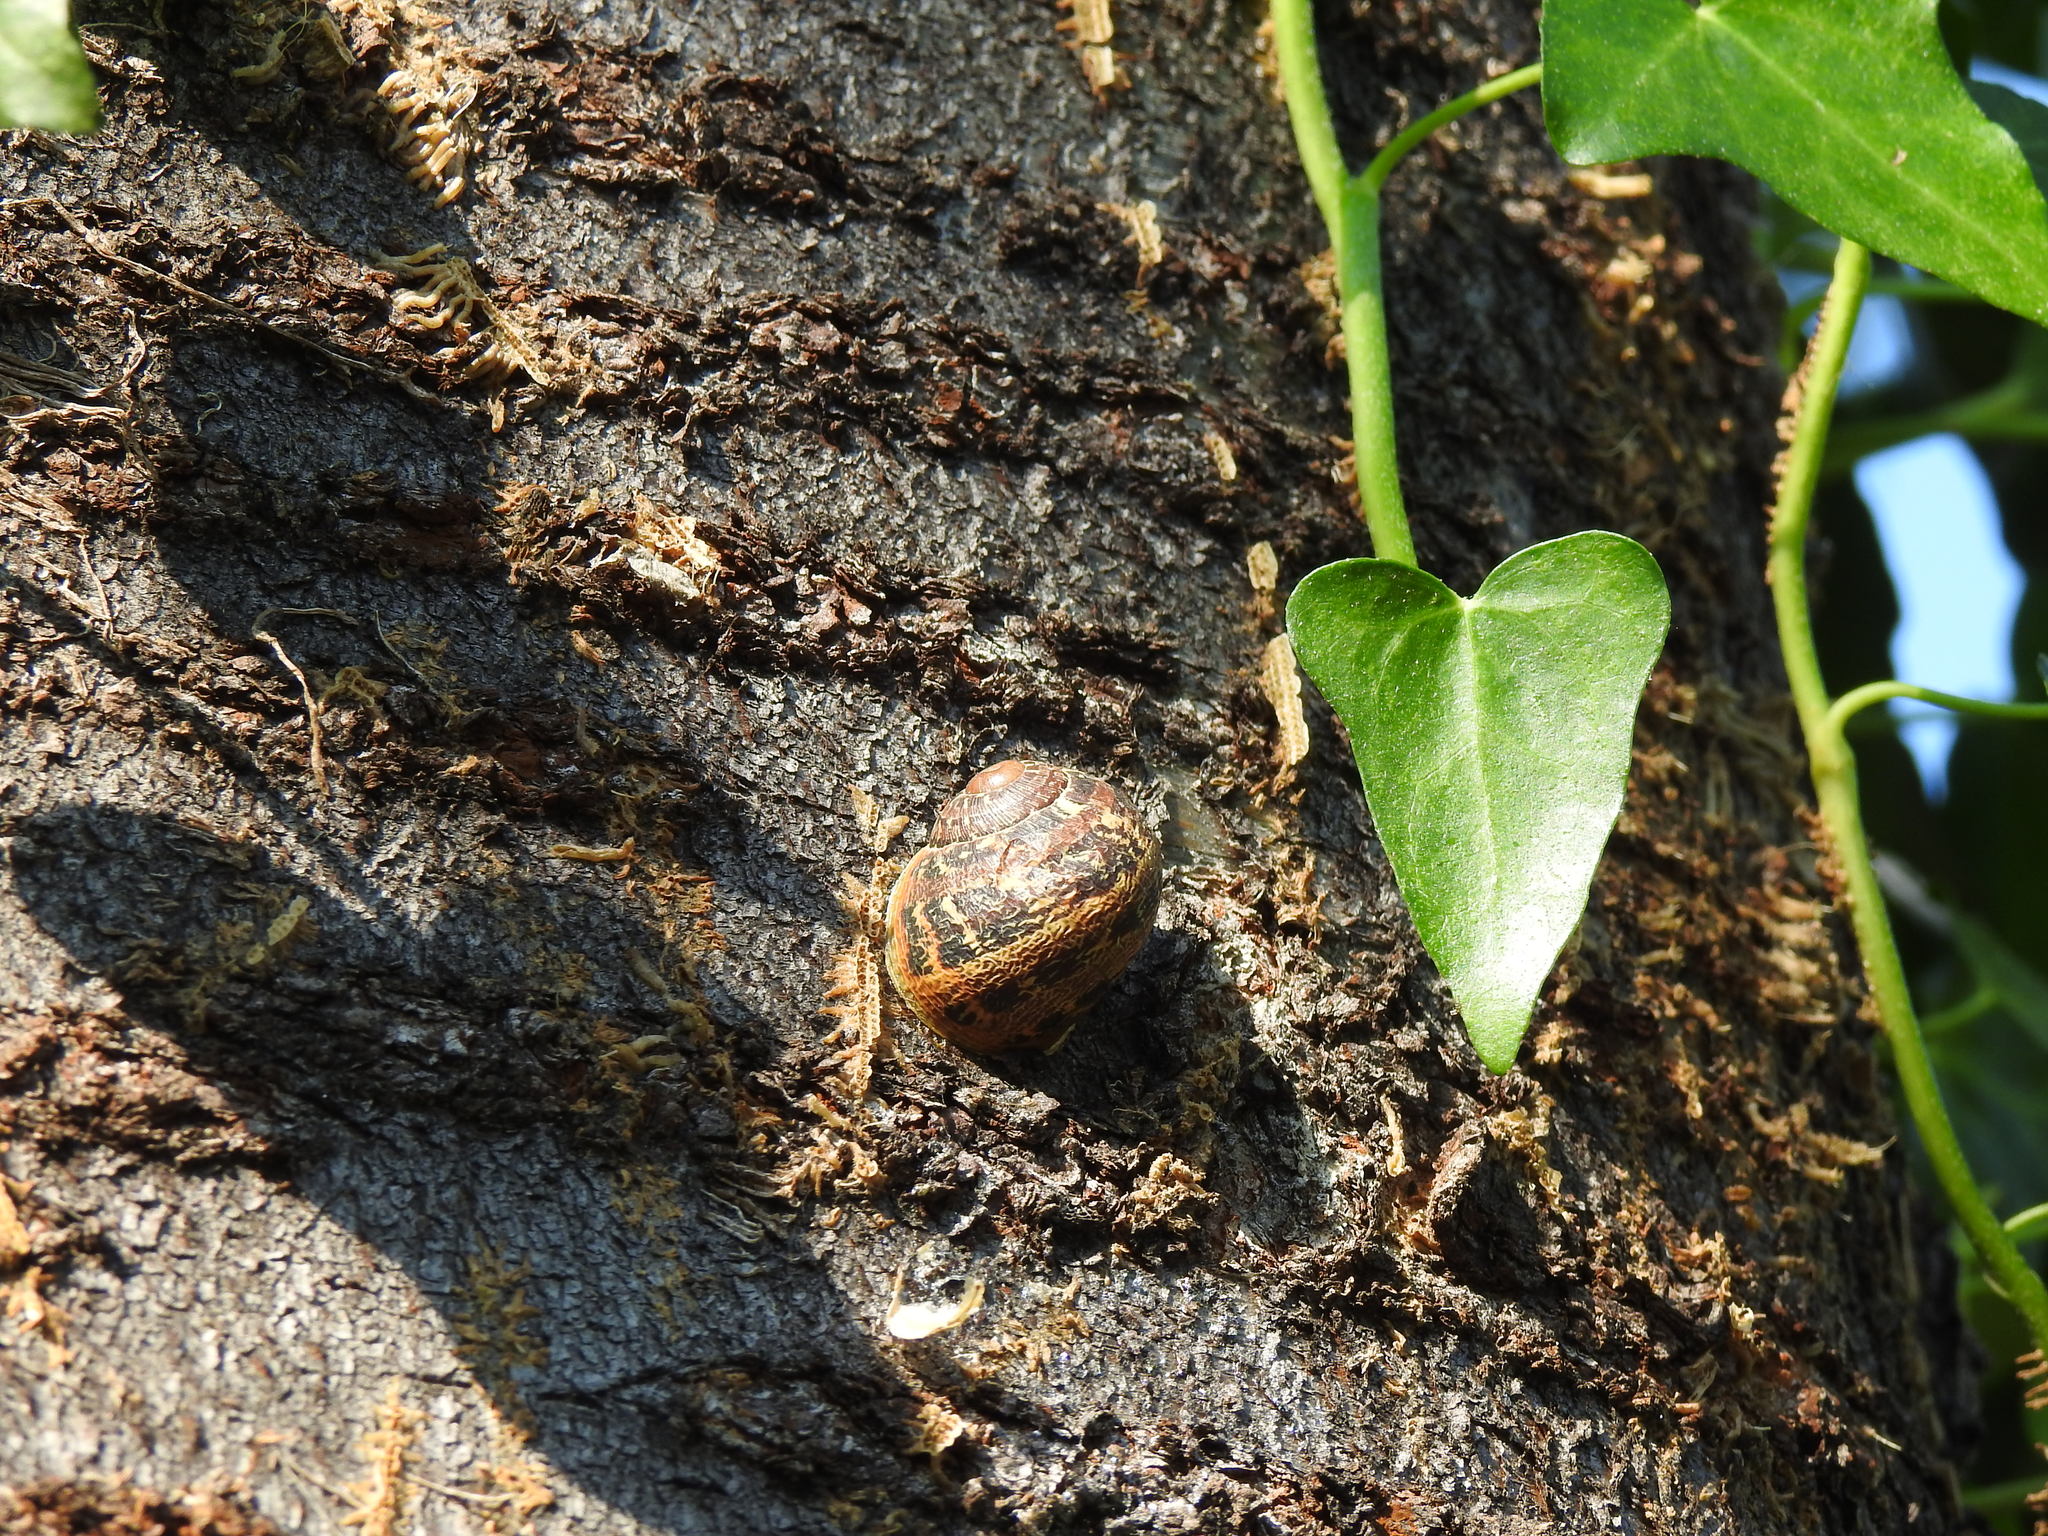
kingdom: Animalia
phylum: Mollusca
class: Gastropoda
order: Stylommatophora
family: Helicidae
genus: Cornu
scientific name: Cornu aspersum
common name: Brown garden snail
